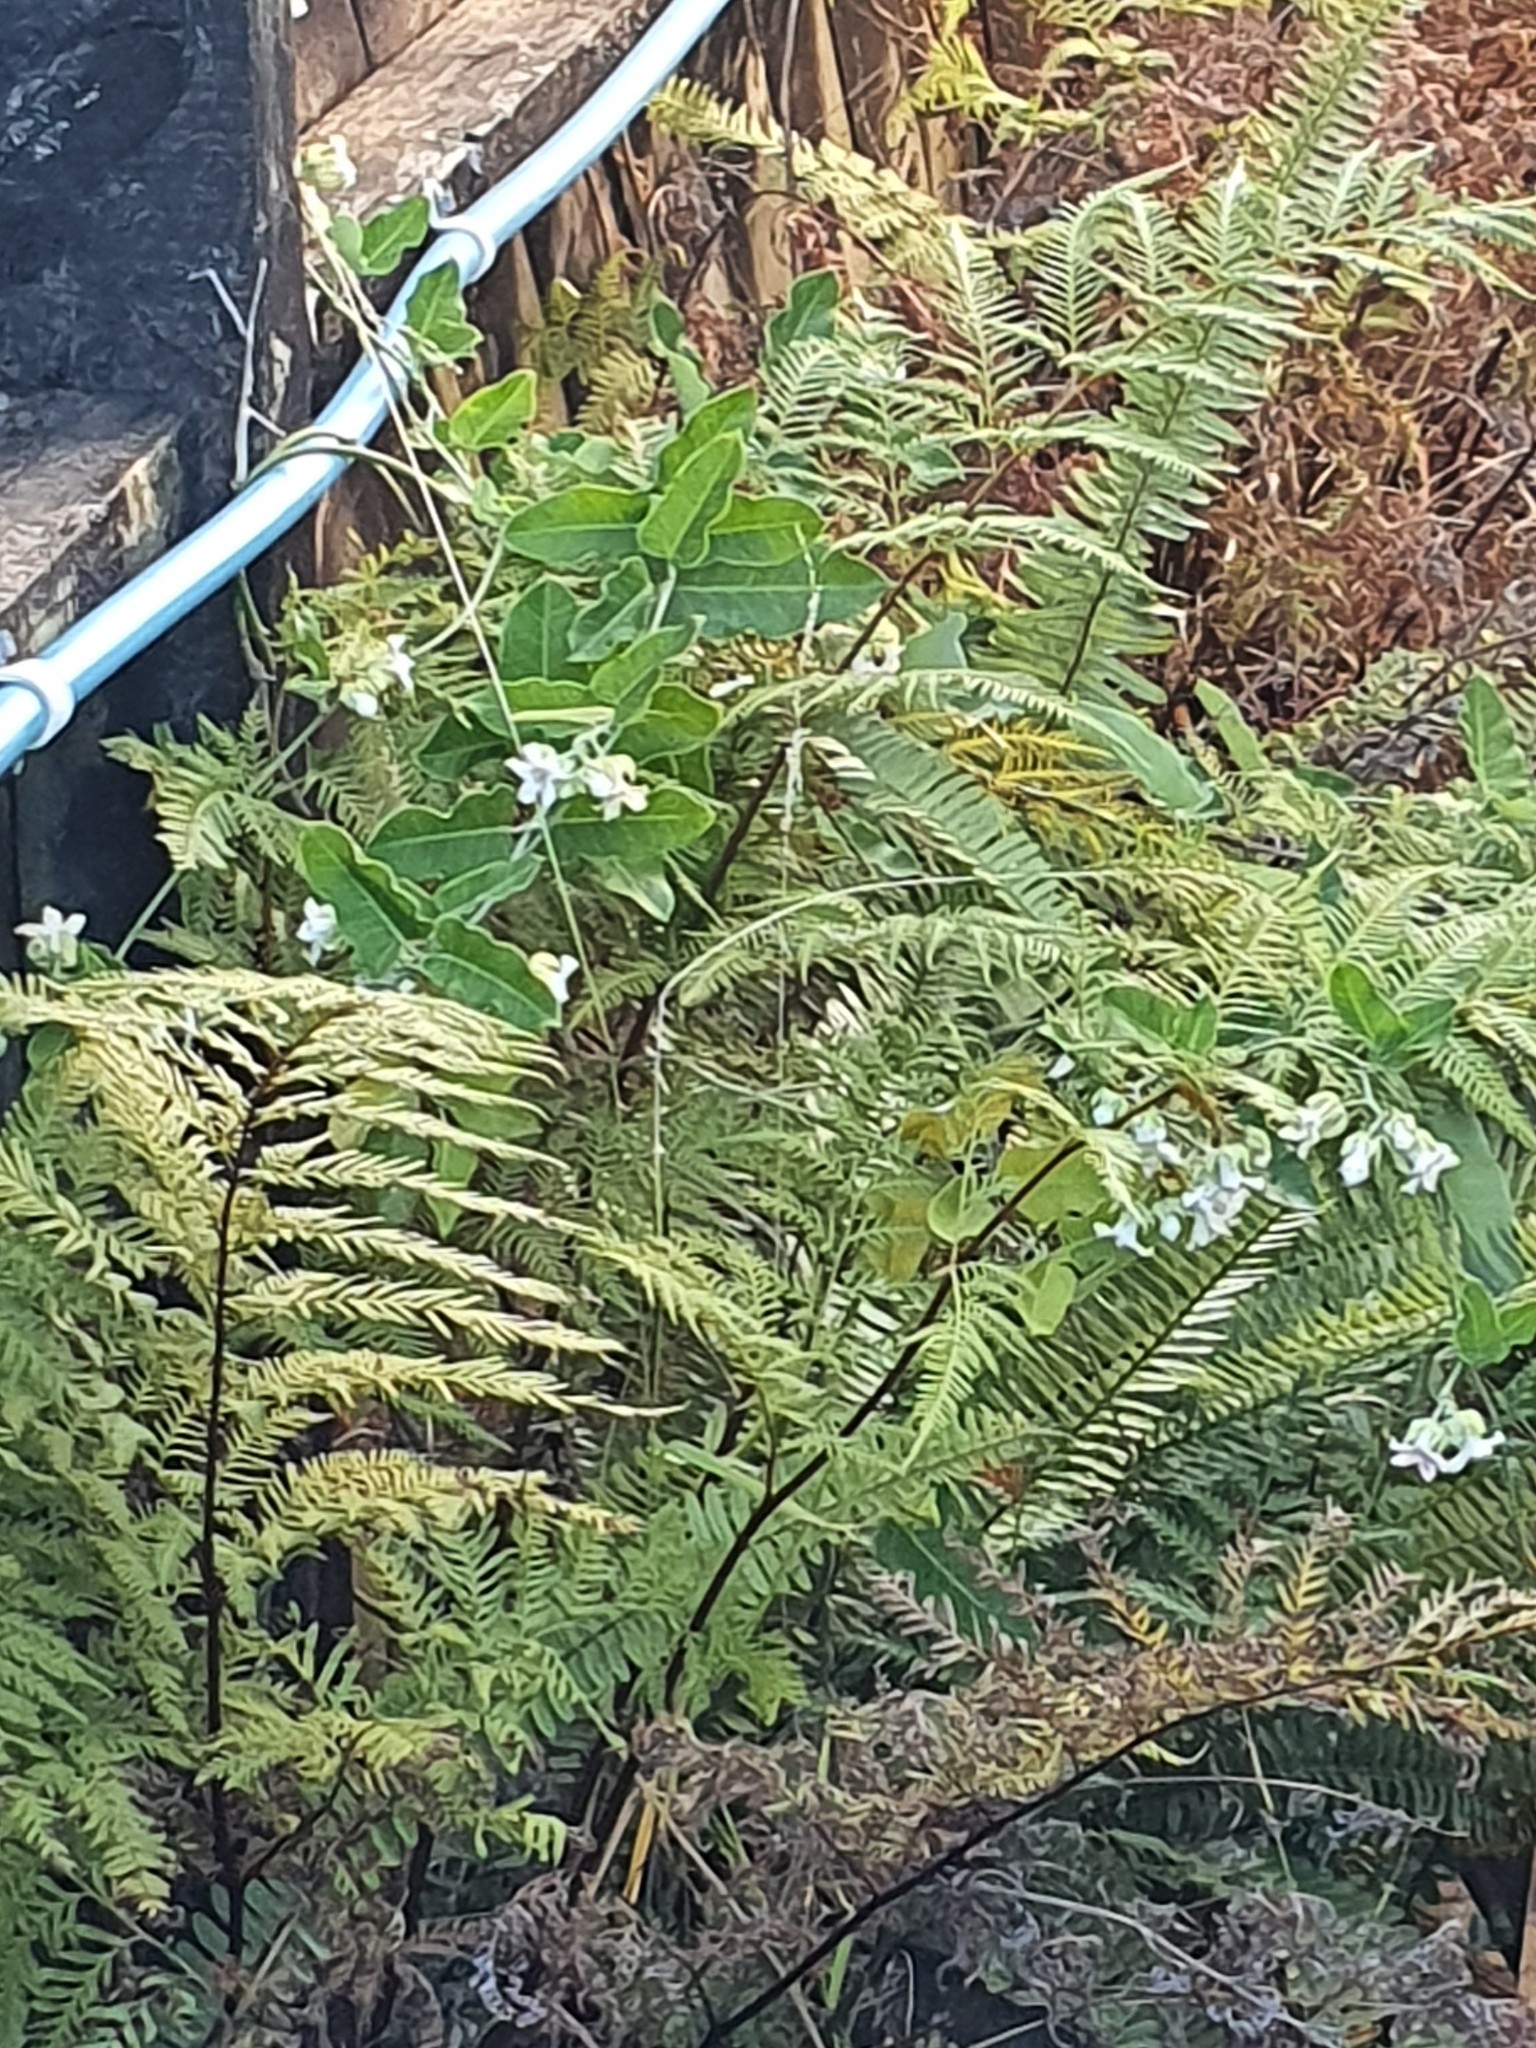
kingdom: Plantae
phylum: Tracheophyta
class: Magnoliopsida
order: Gentianales
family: Apocynaceae
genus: Araujia
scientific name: Araujia sericifera
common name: White bladderflower
